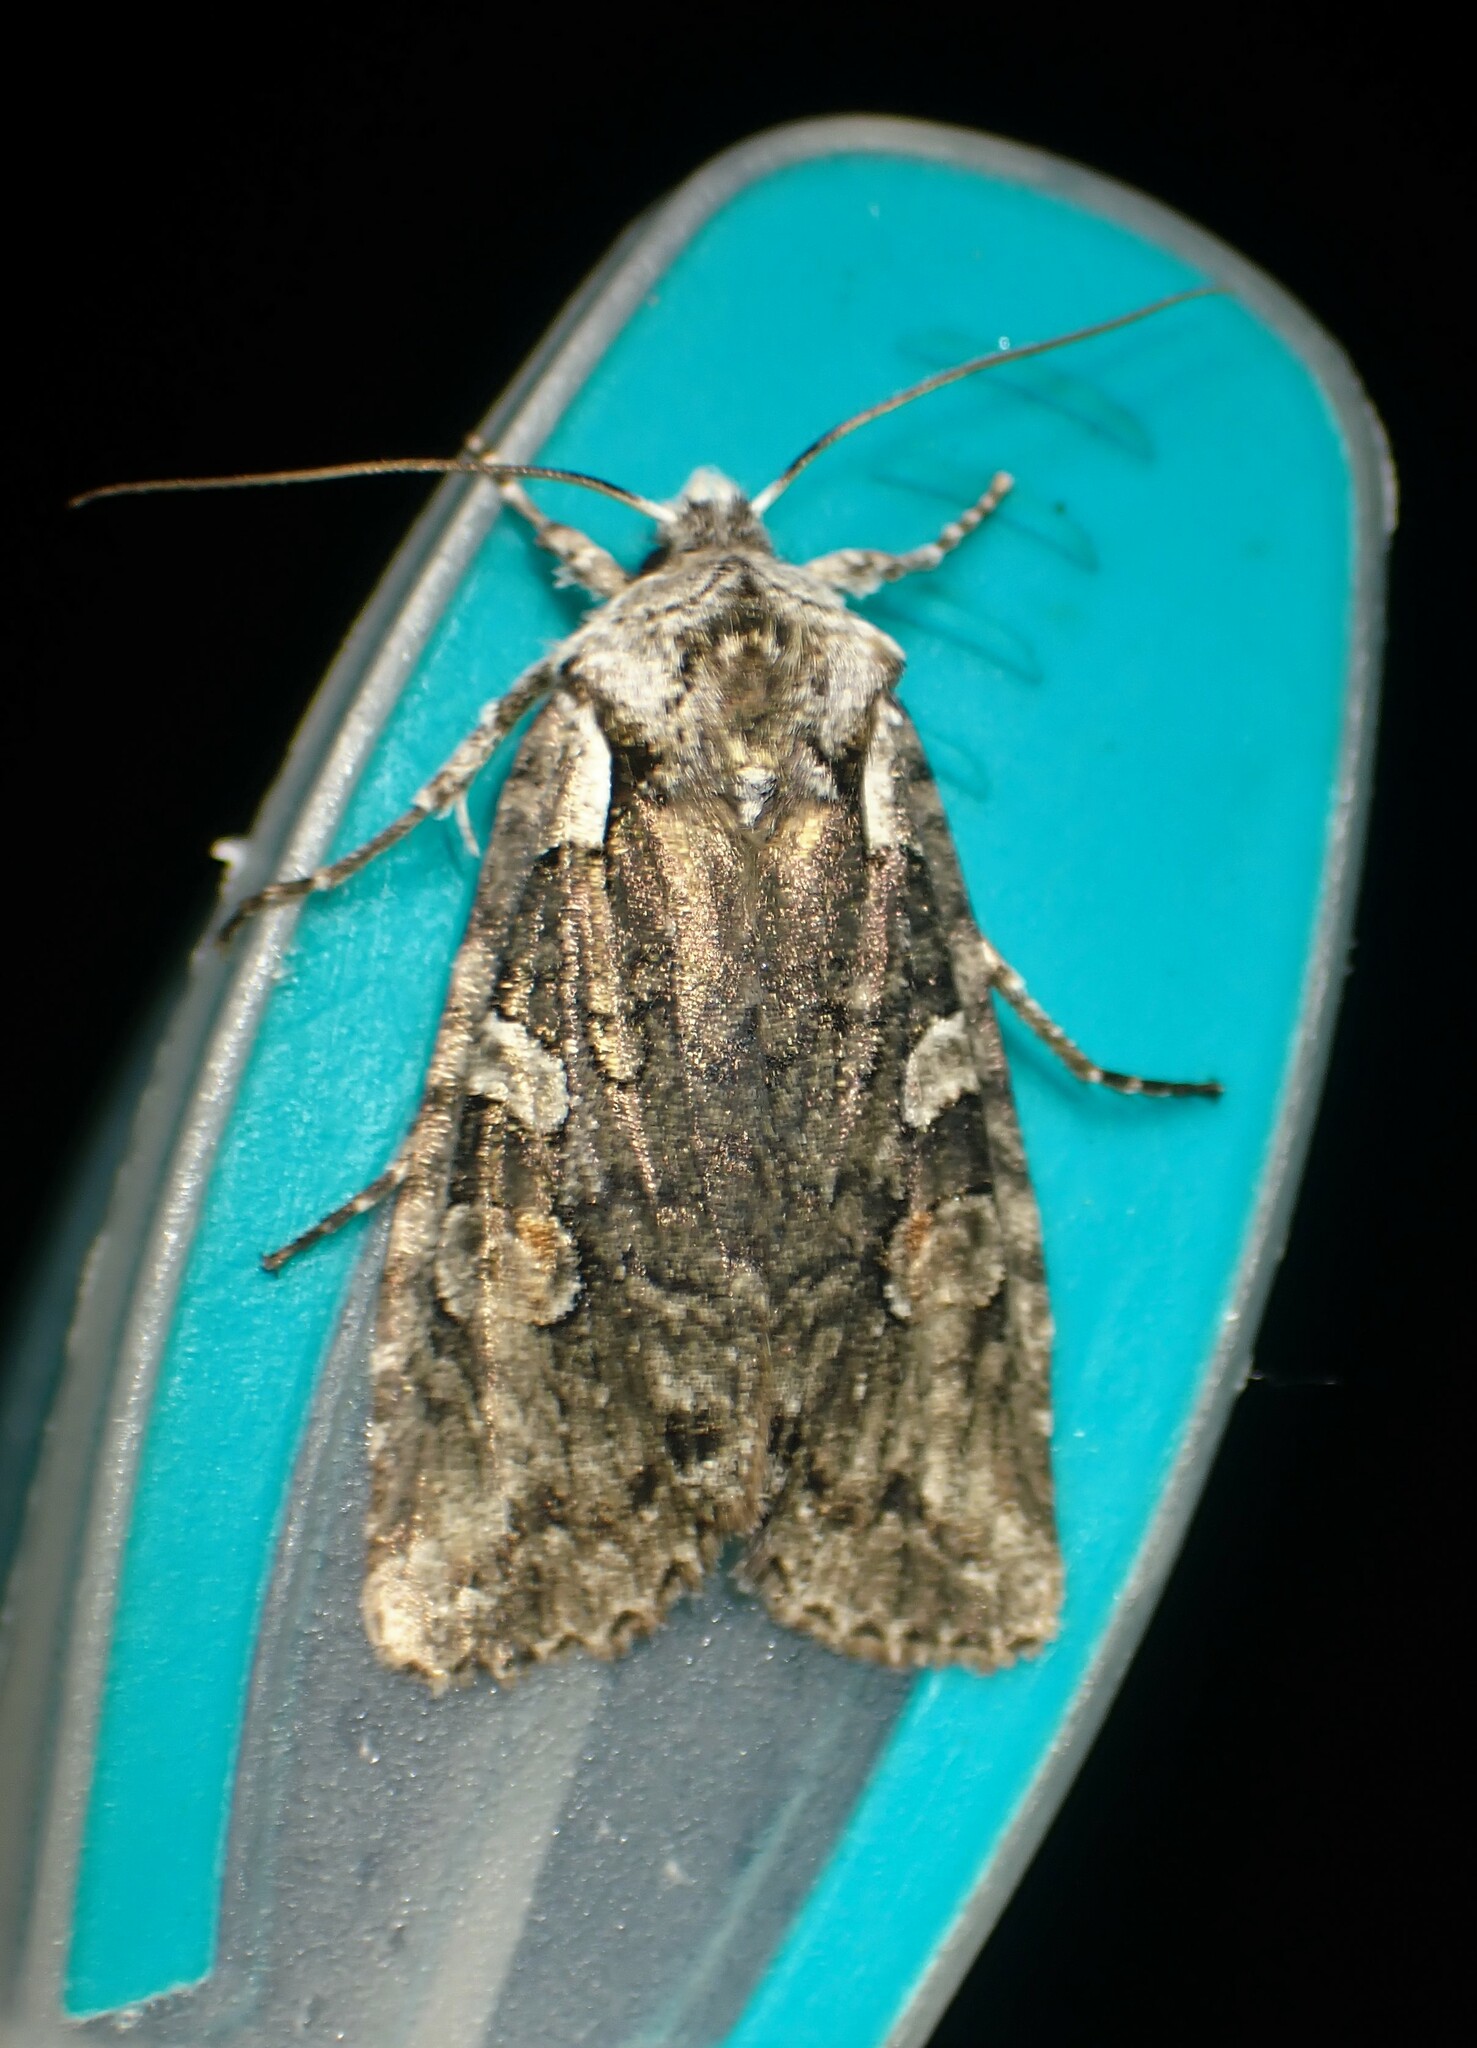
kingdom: Animalia
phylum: Arthropoda
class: Insecta
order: Lepidoptera
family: Noctuidae
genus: Lithophane
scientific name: Lithophane baileyi
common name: Bailey's pinion moth
